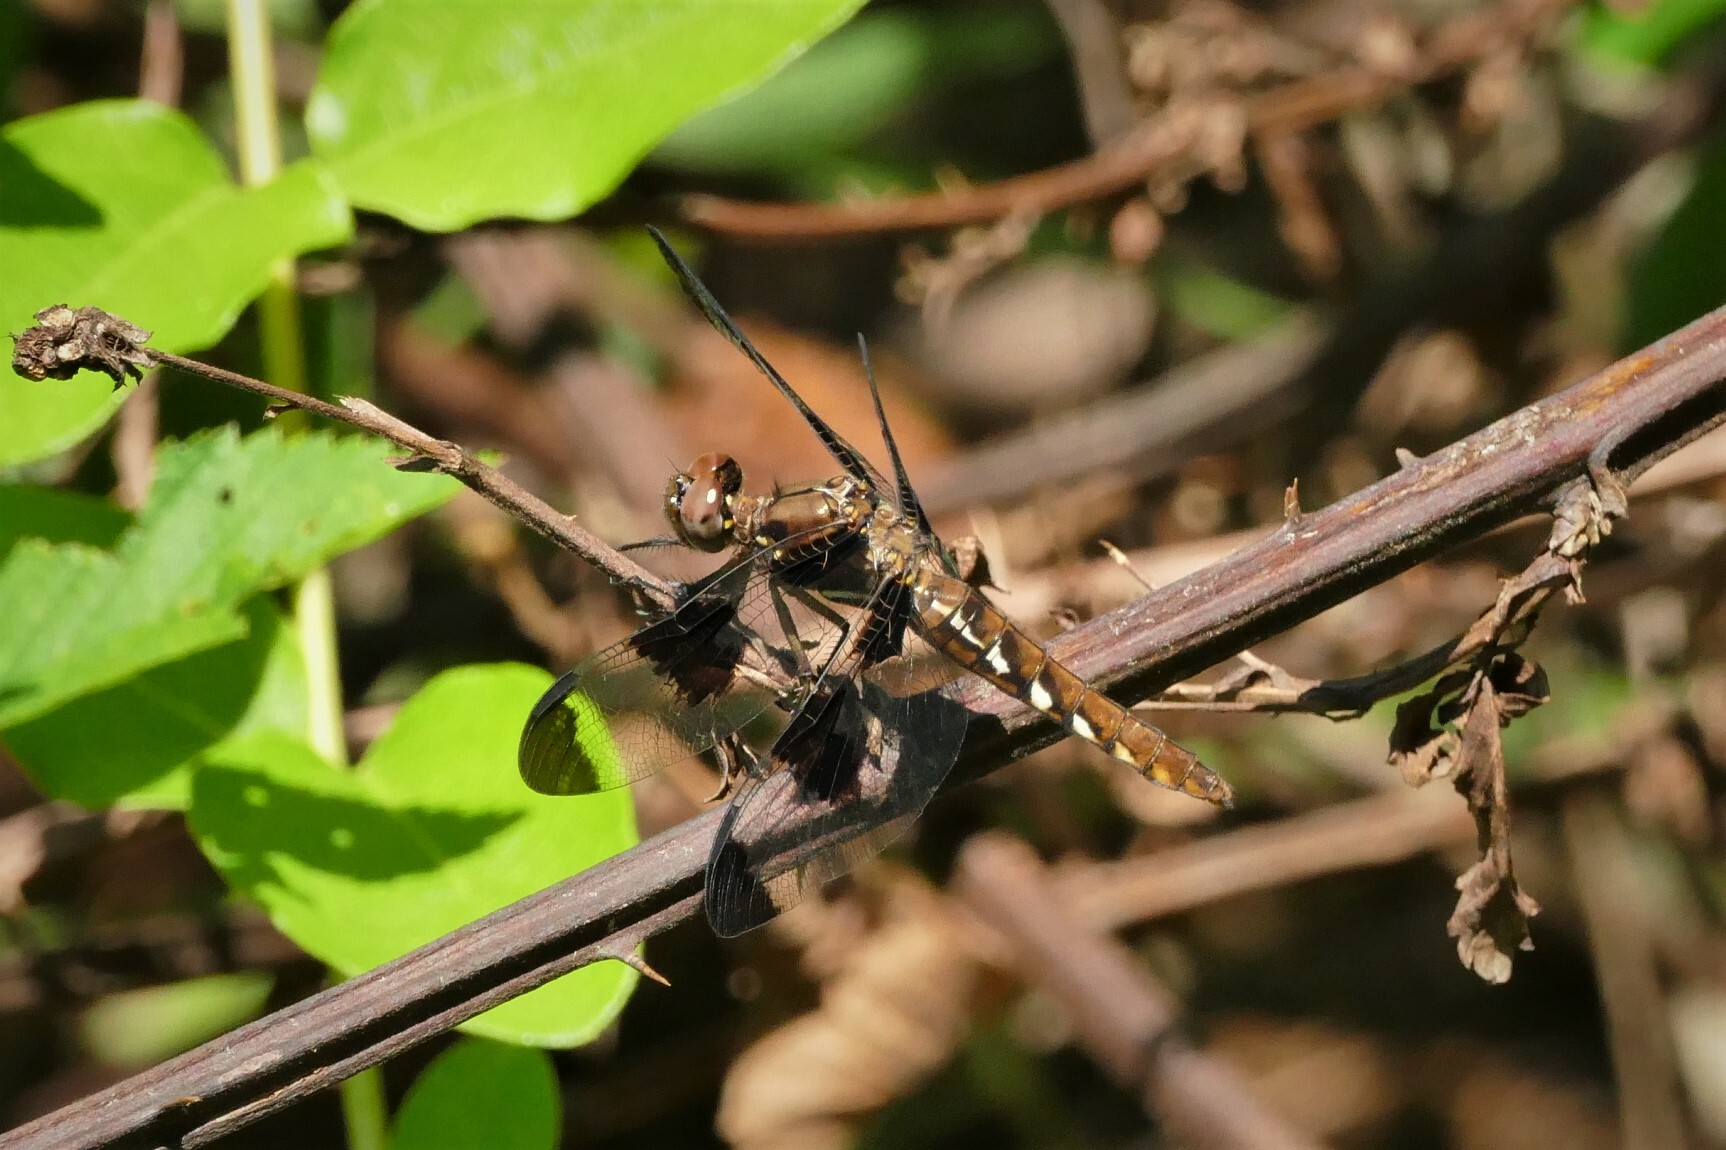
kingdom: Animalia
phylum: Arthropoda
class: Insecta
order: Odonata
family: Libellulidae
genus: Plathemis
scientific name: Plathemis lydia
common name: Common whitetail
